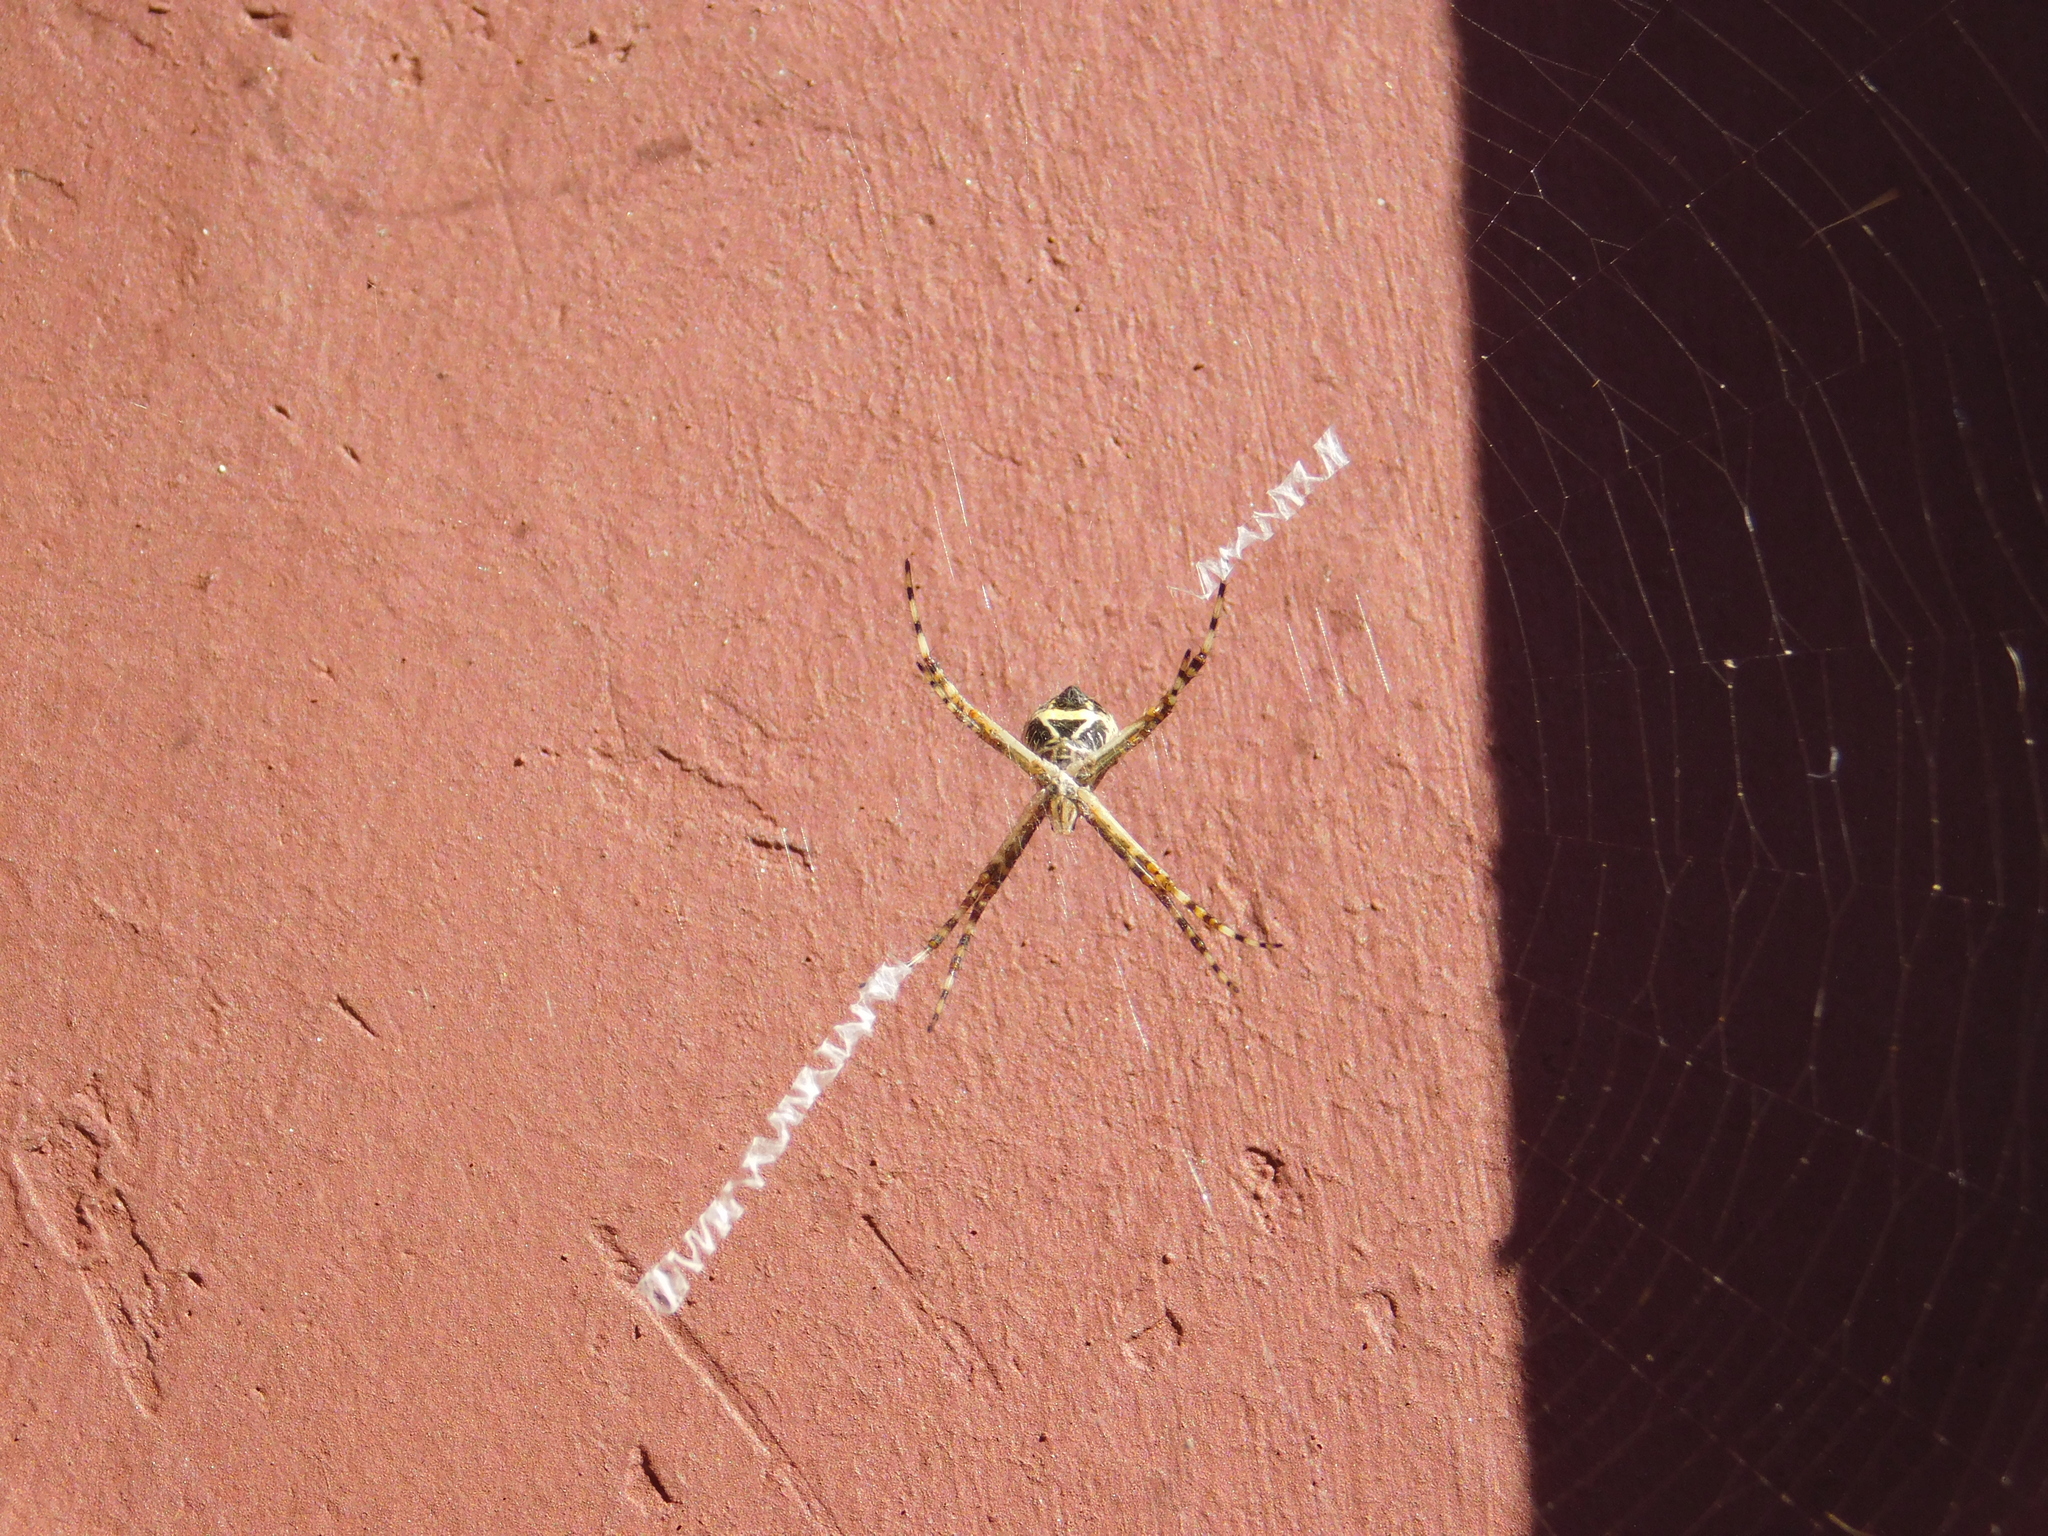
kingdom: Animalia
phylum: Arthropoda
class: Arachnida
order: Araneae
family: Araneidae
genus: Argiope
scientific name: Argiope argentata
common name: Orb weavers
